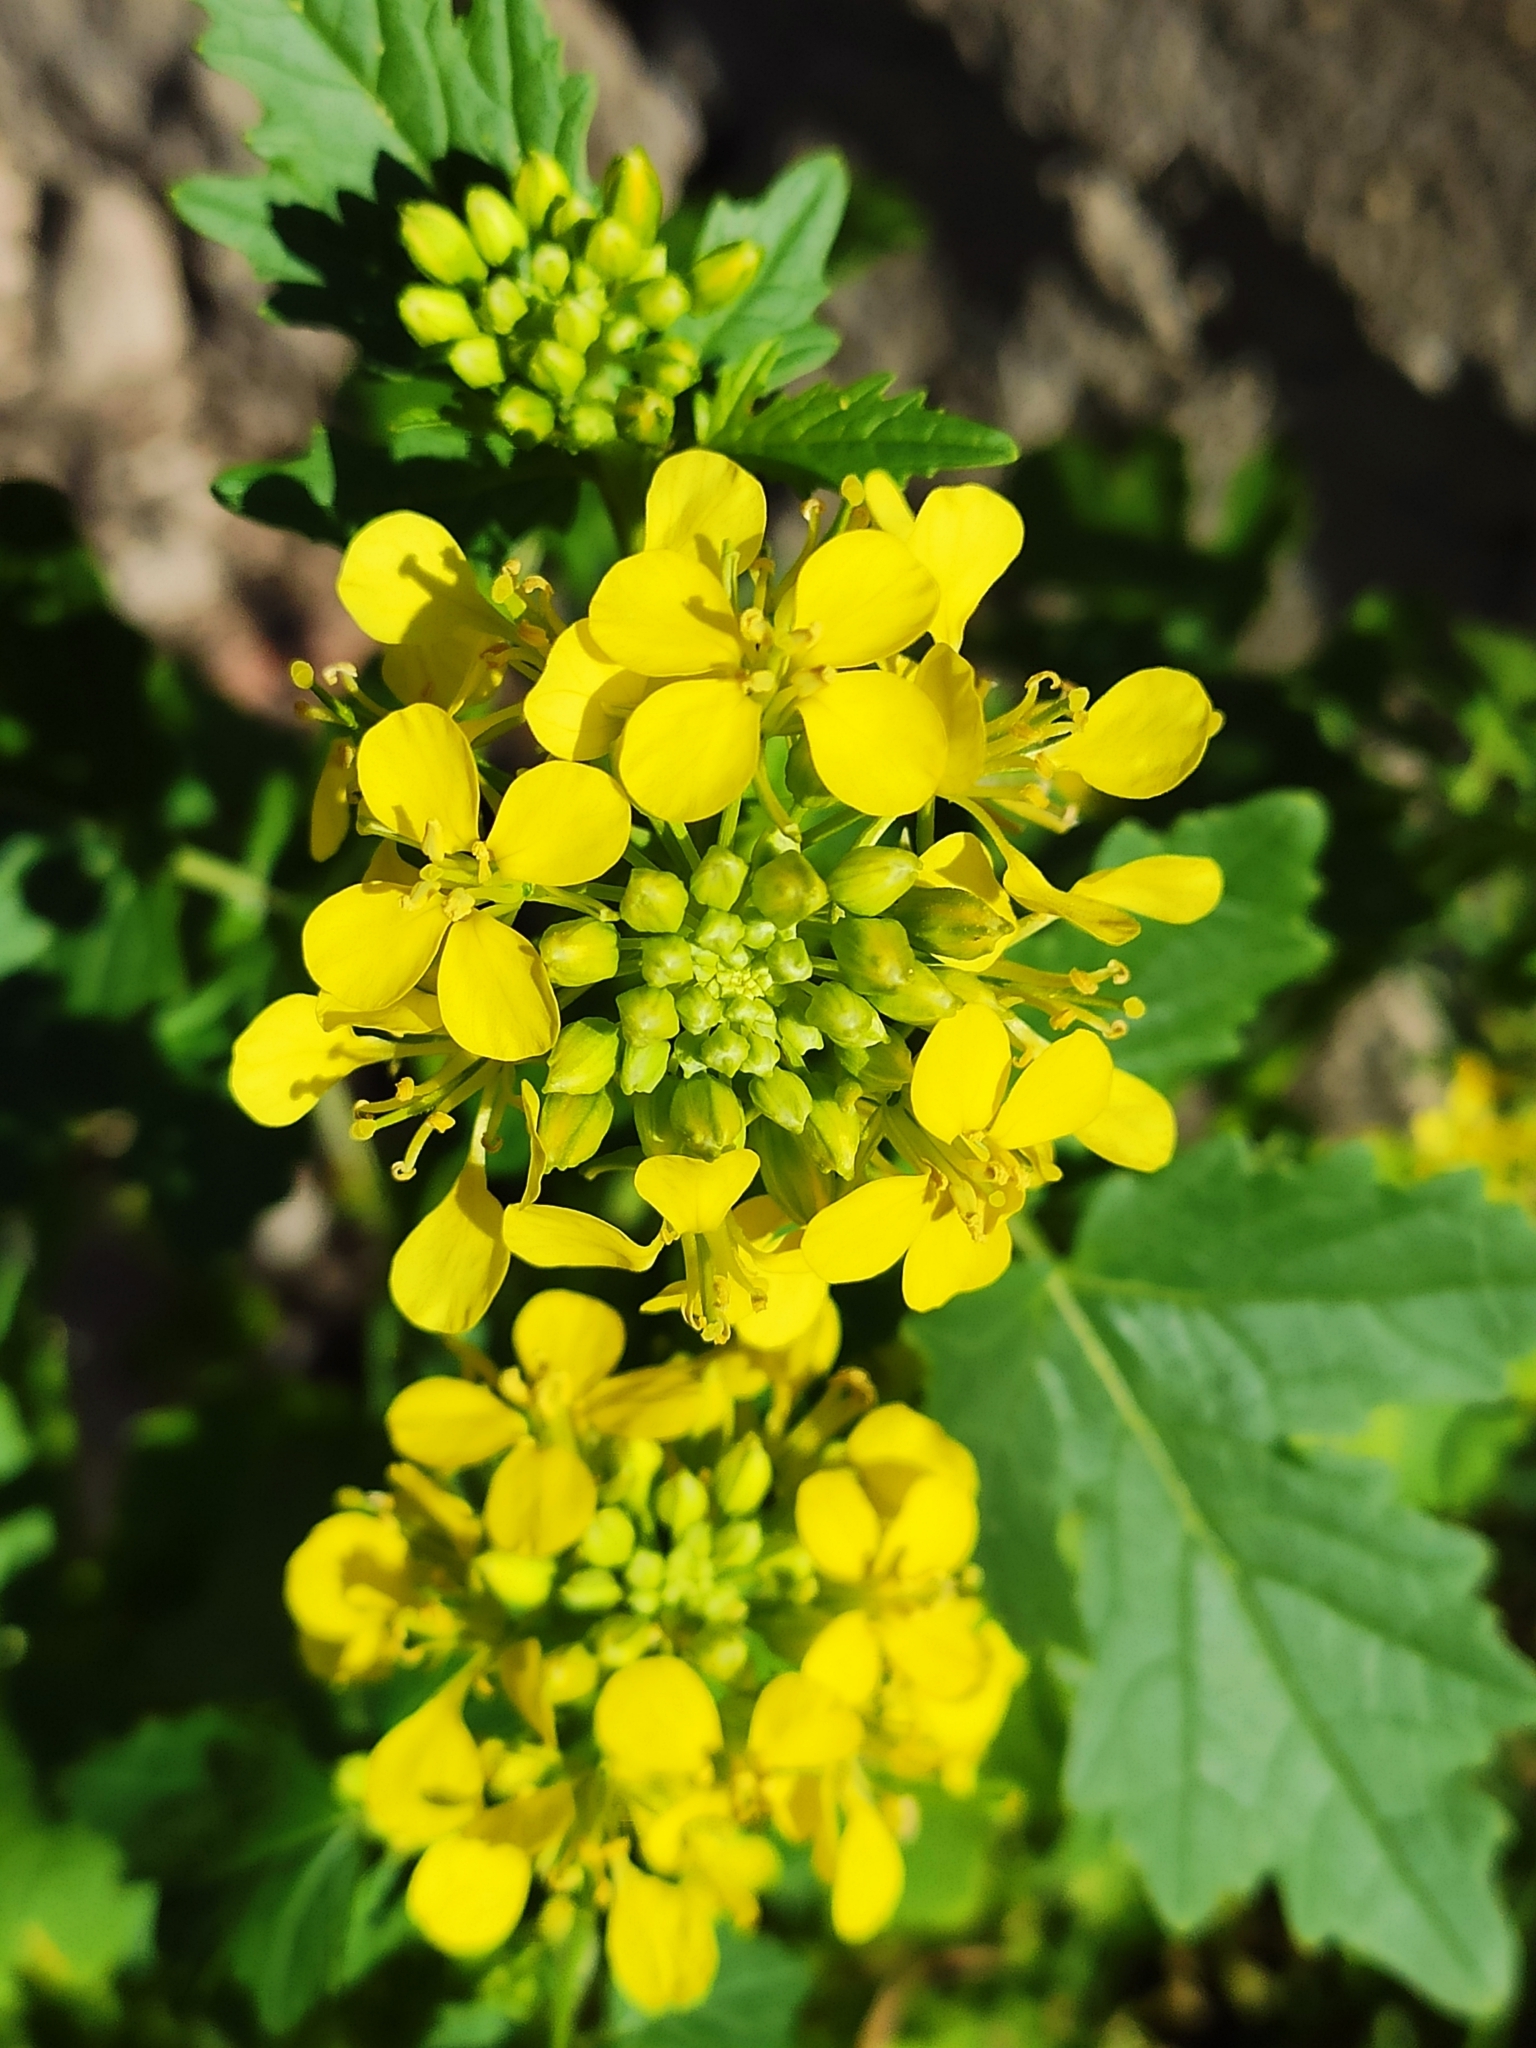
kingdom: Plantae
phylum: Tracheophyta
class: Magnoliopsida
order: Brassicales
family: Brassicaceae
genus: Sinapis
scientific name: Sinapis alba
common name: White mustard
